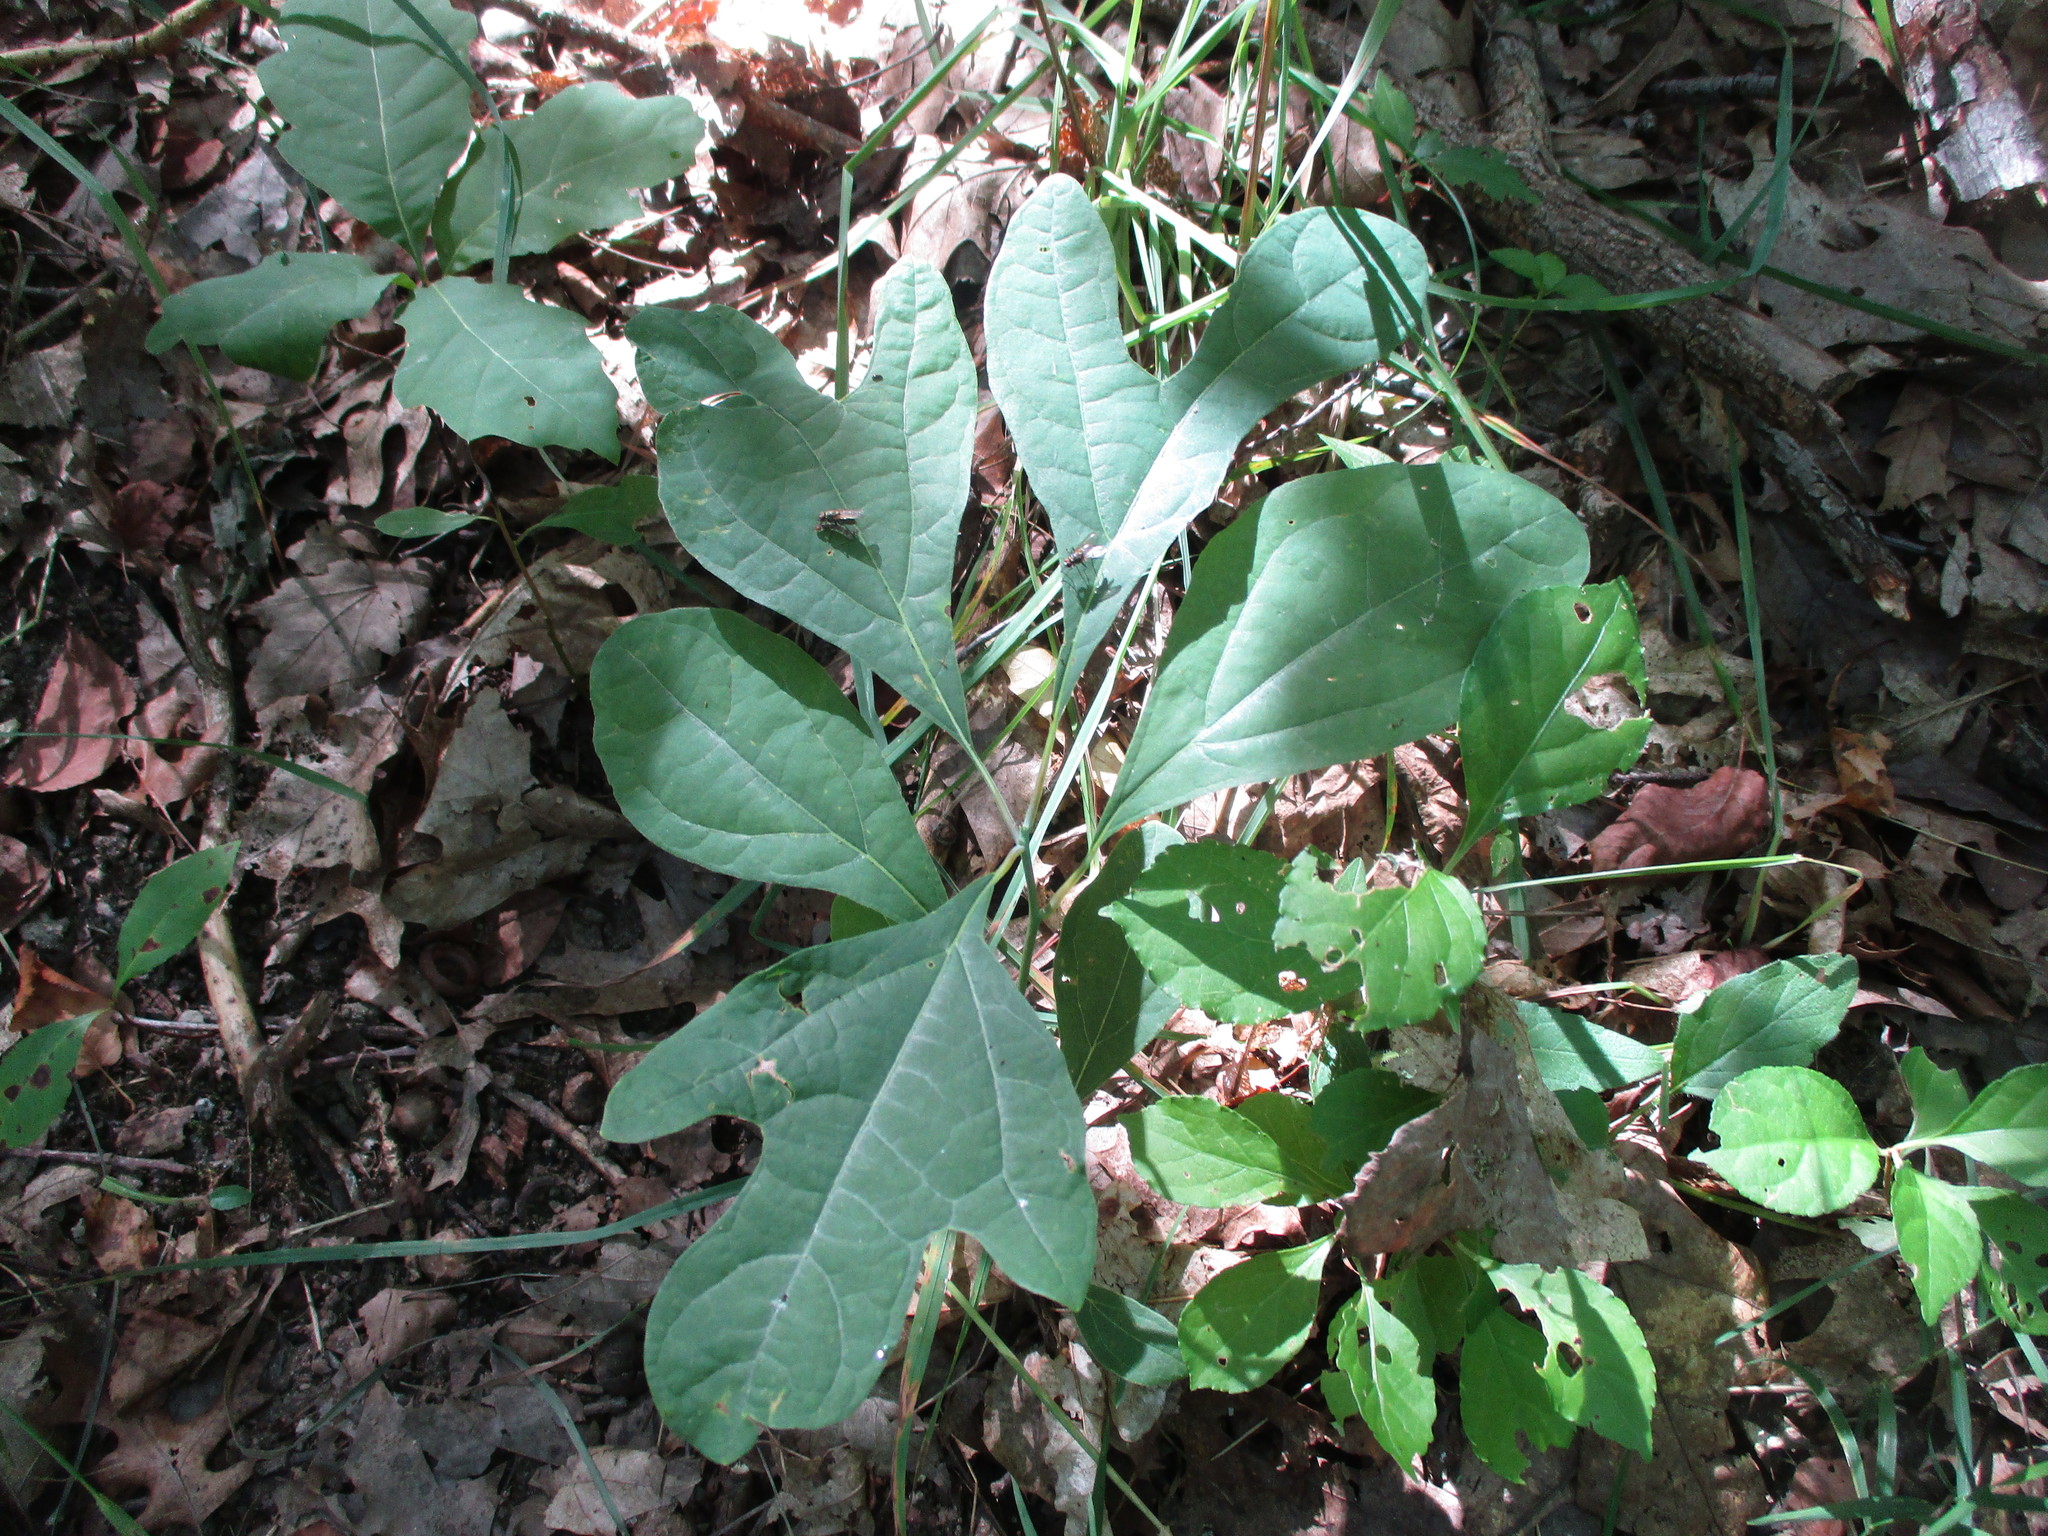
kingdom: Plantae
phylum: Tracheophyta
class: Magnoliopsida
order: Laurales
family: Lauraceae
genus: Sassafras
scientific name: Sassafras albidum
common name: Sassafras
